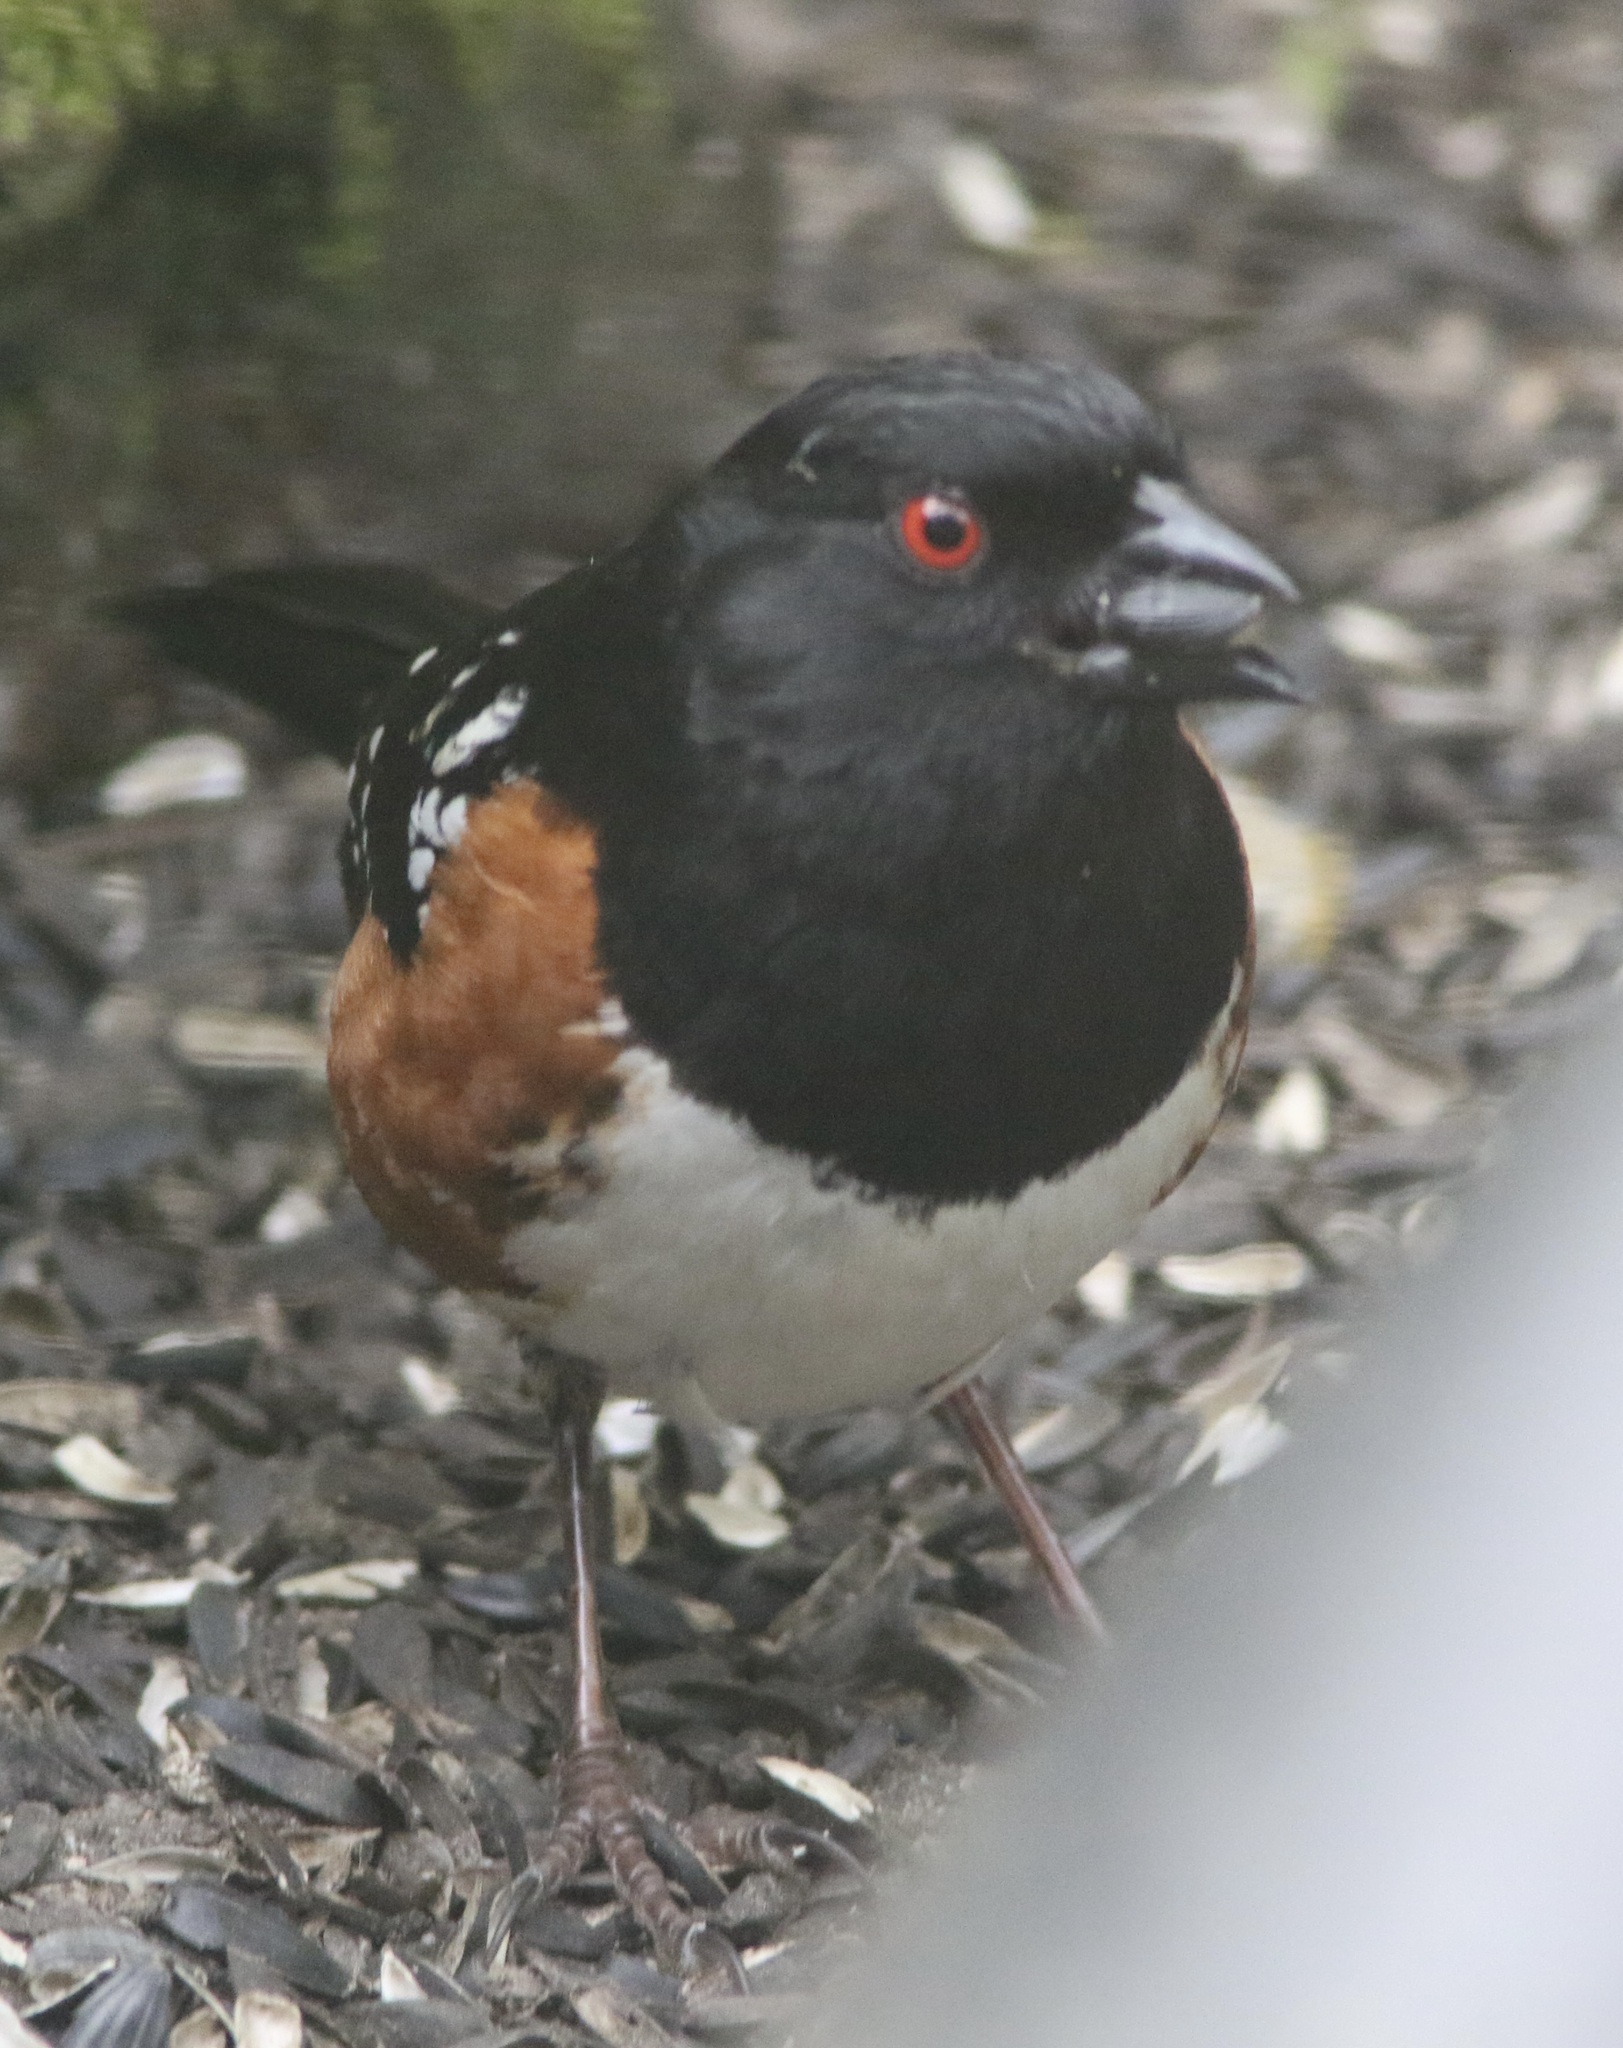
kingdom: Animalia
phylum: Chordata
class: Aves
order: Passeriformes
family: Passerellidae
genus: Pipilo
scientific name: Pipilo maculatus
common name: Spotted towhee
